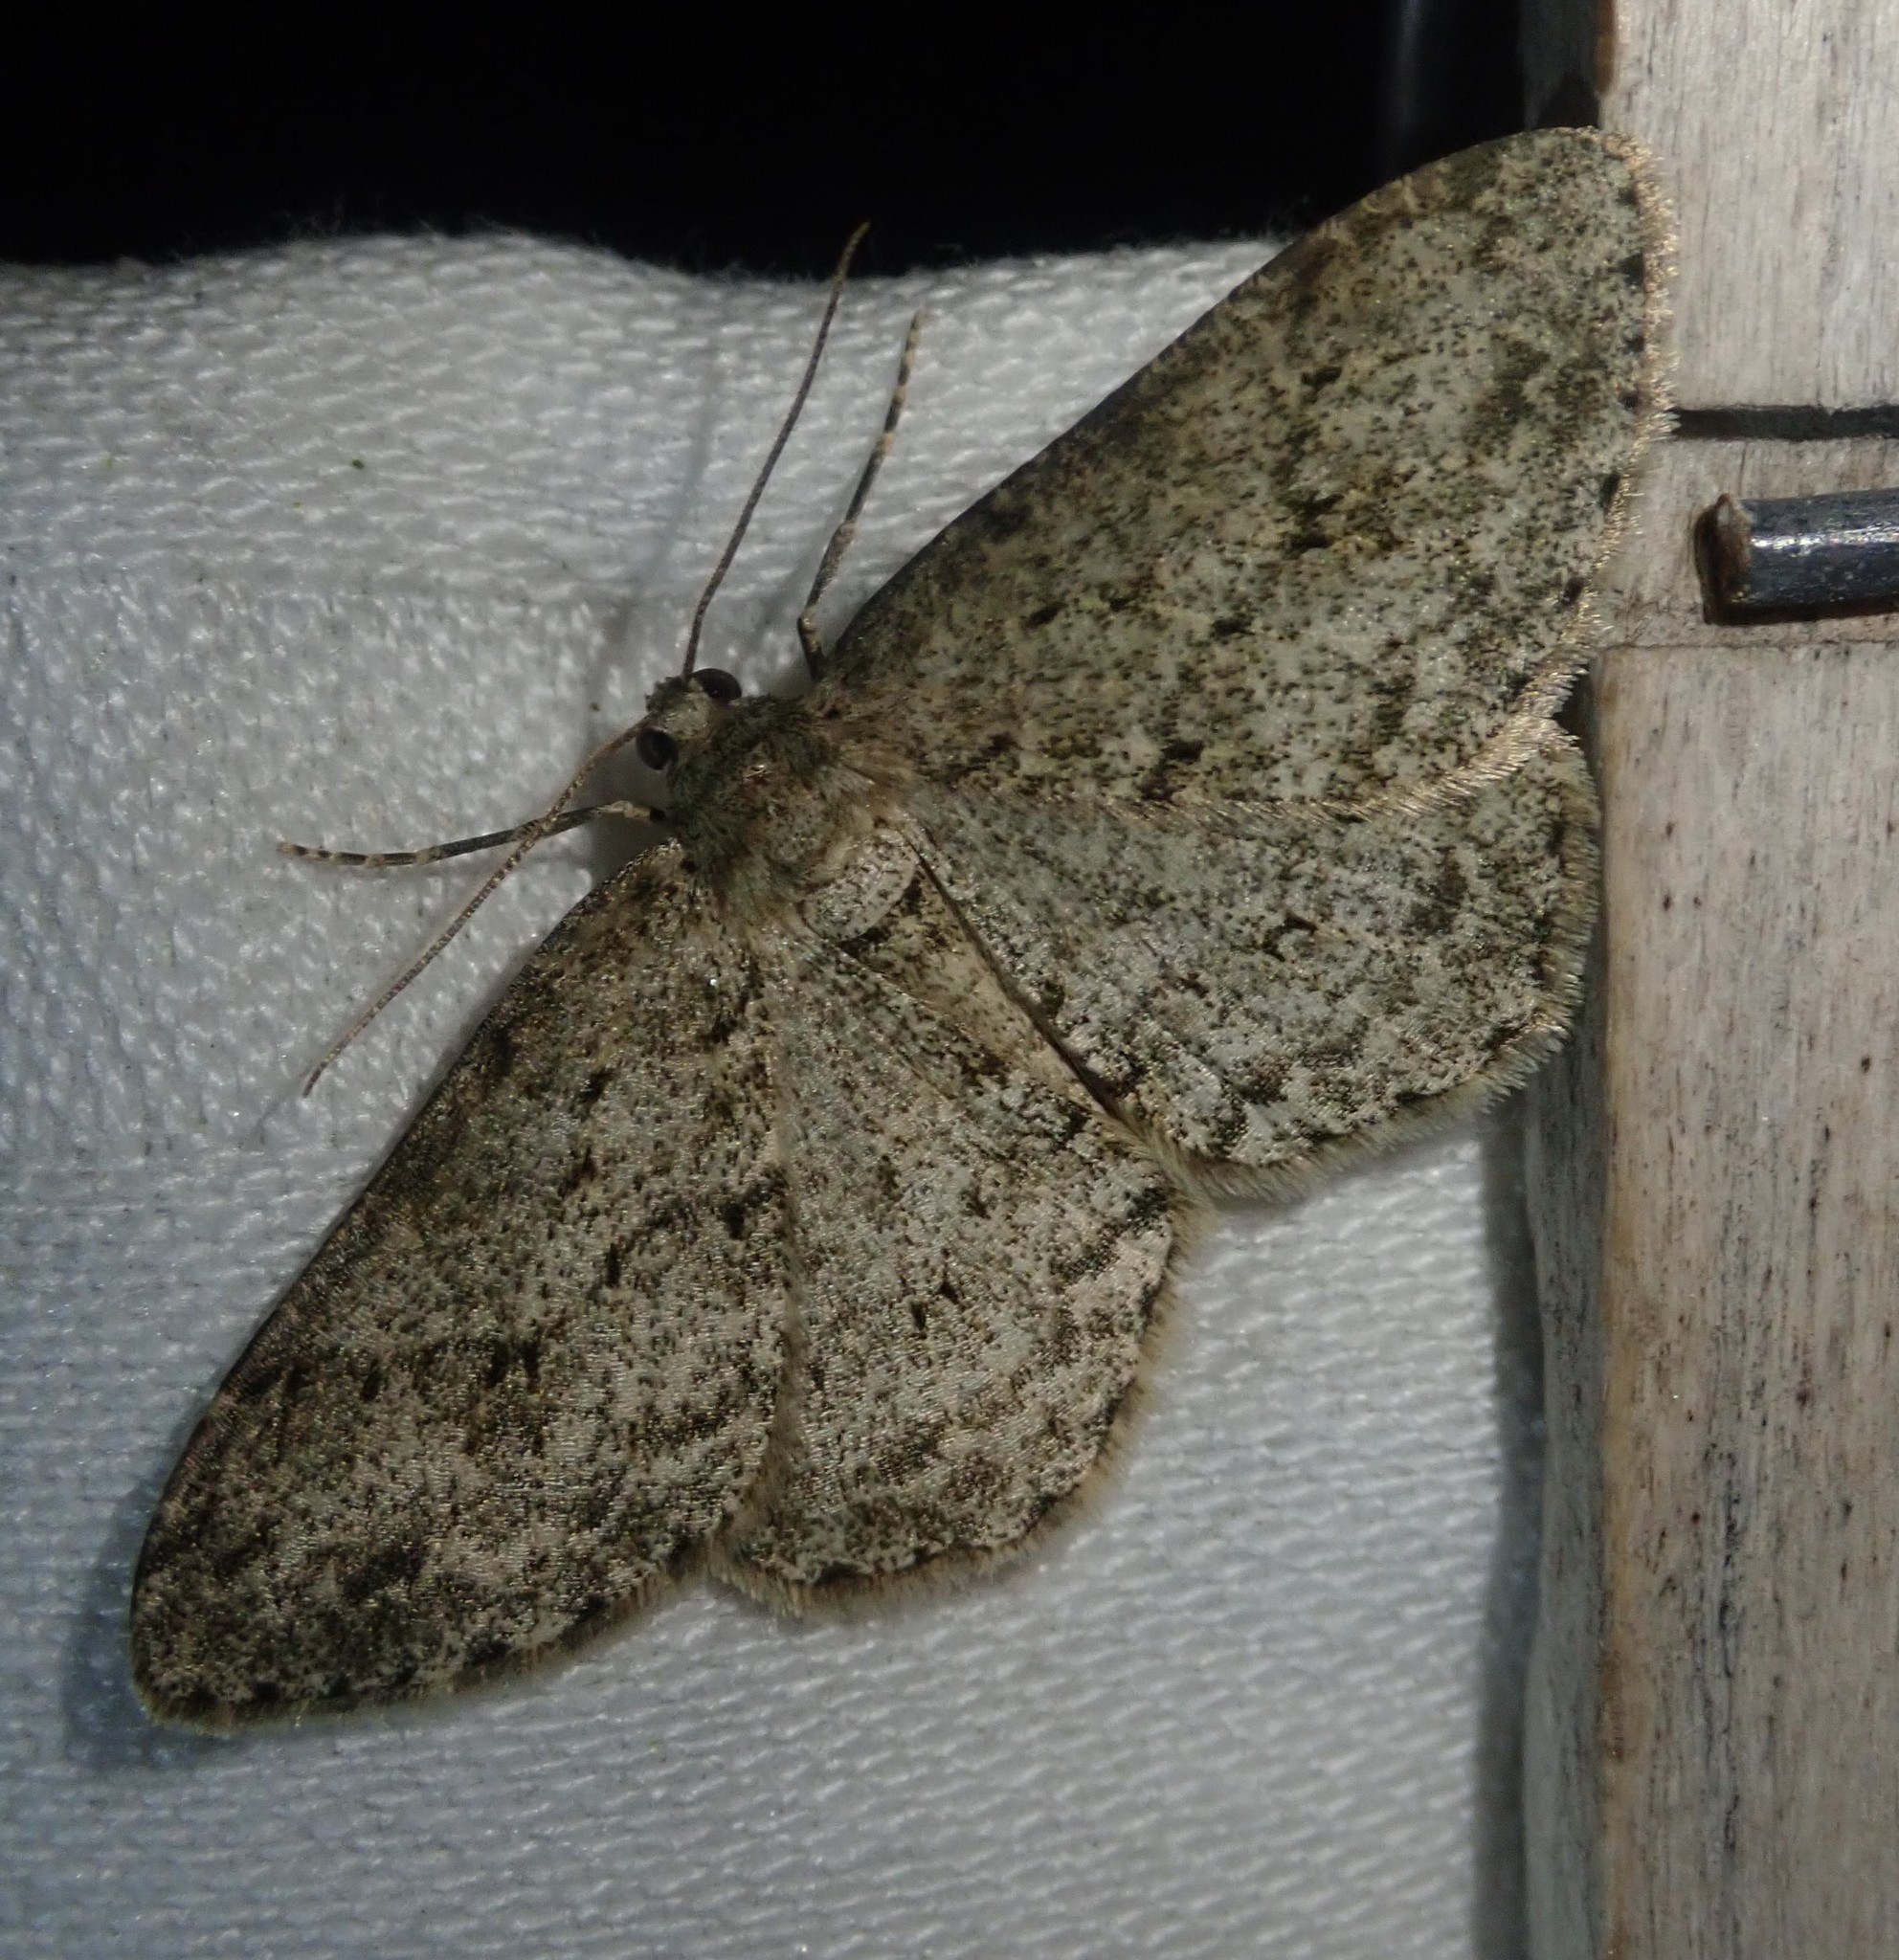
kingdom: Animalia
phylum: Arthropoda
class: Insecta
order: Lepidoptera
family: Geometridae
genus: Ectropis
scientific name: Ectropis crepuscularia
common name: Engrailed
